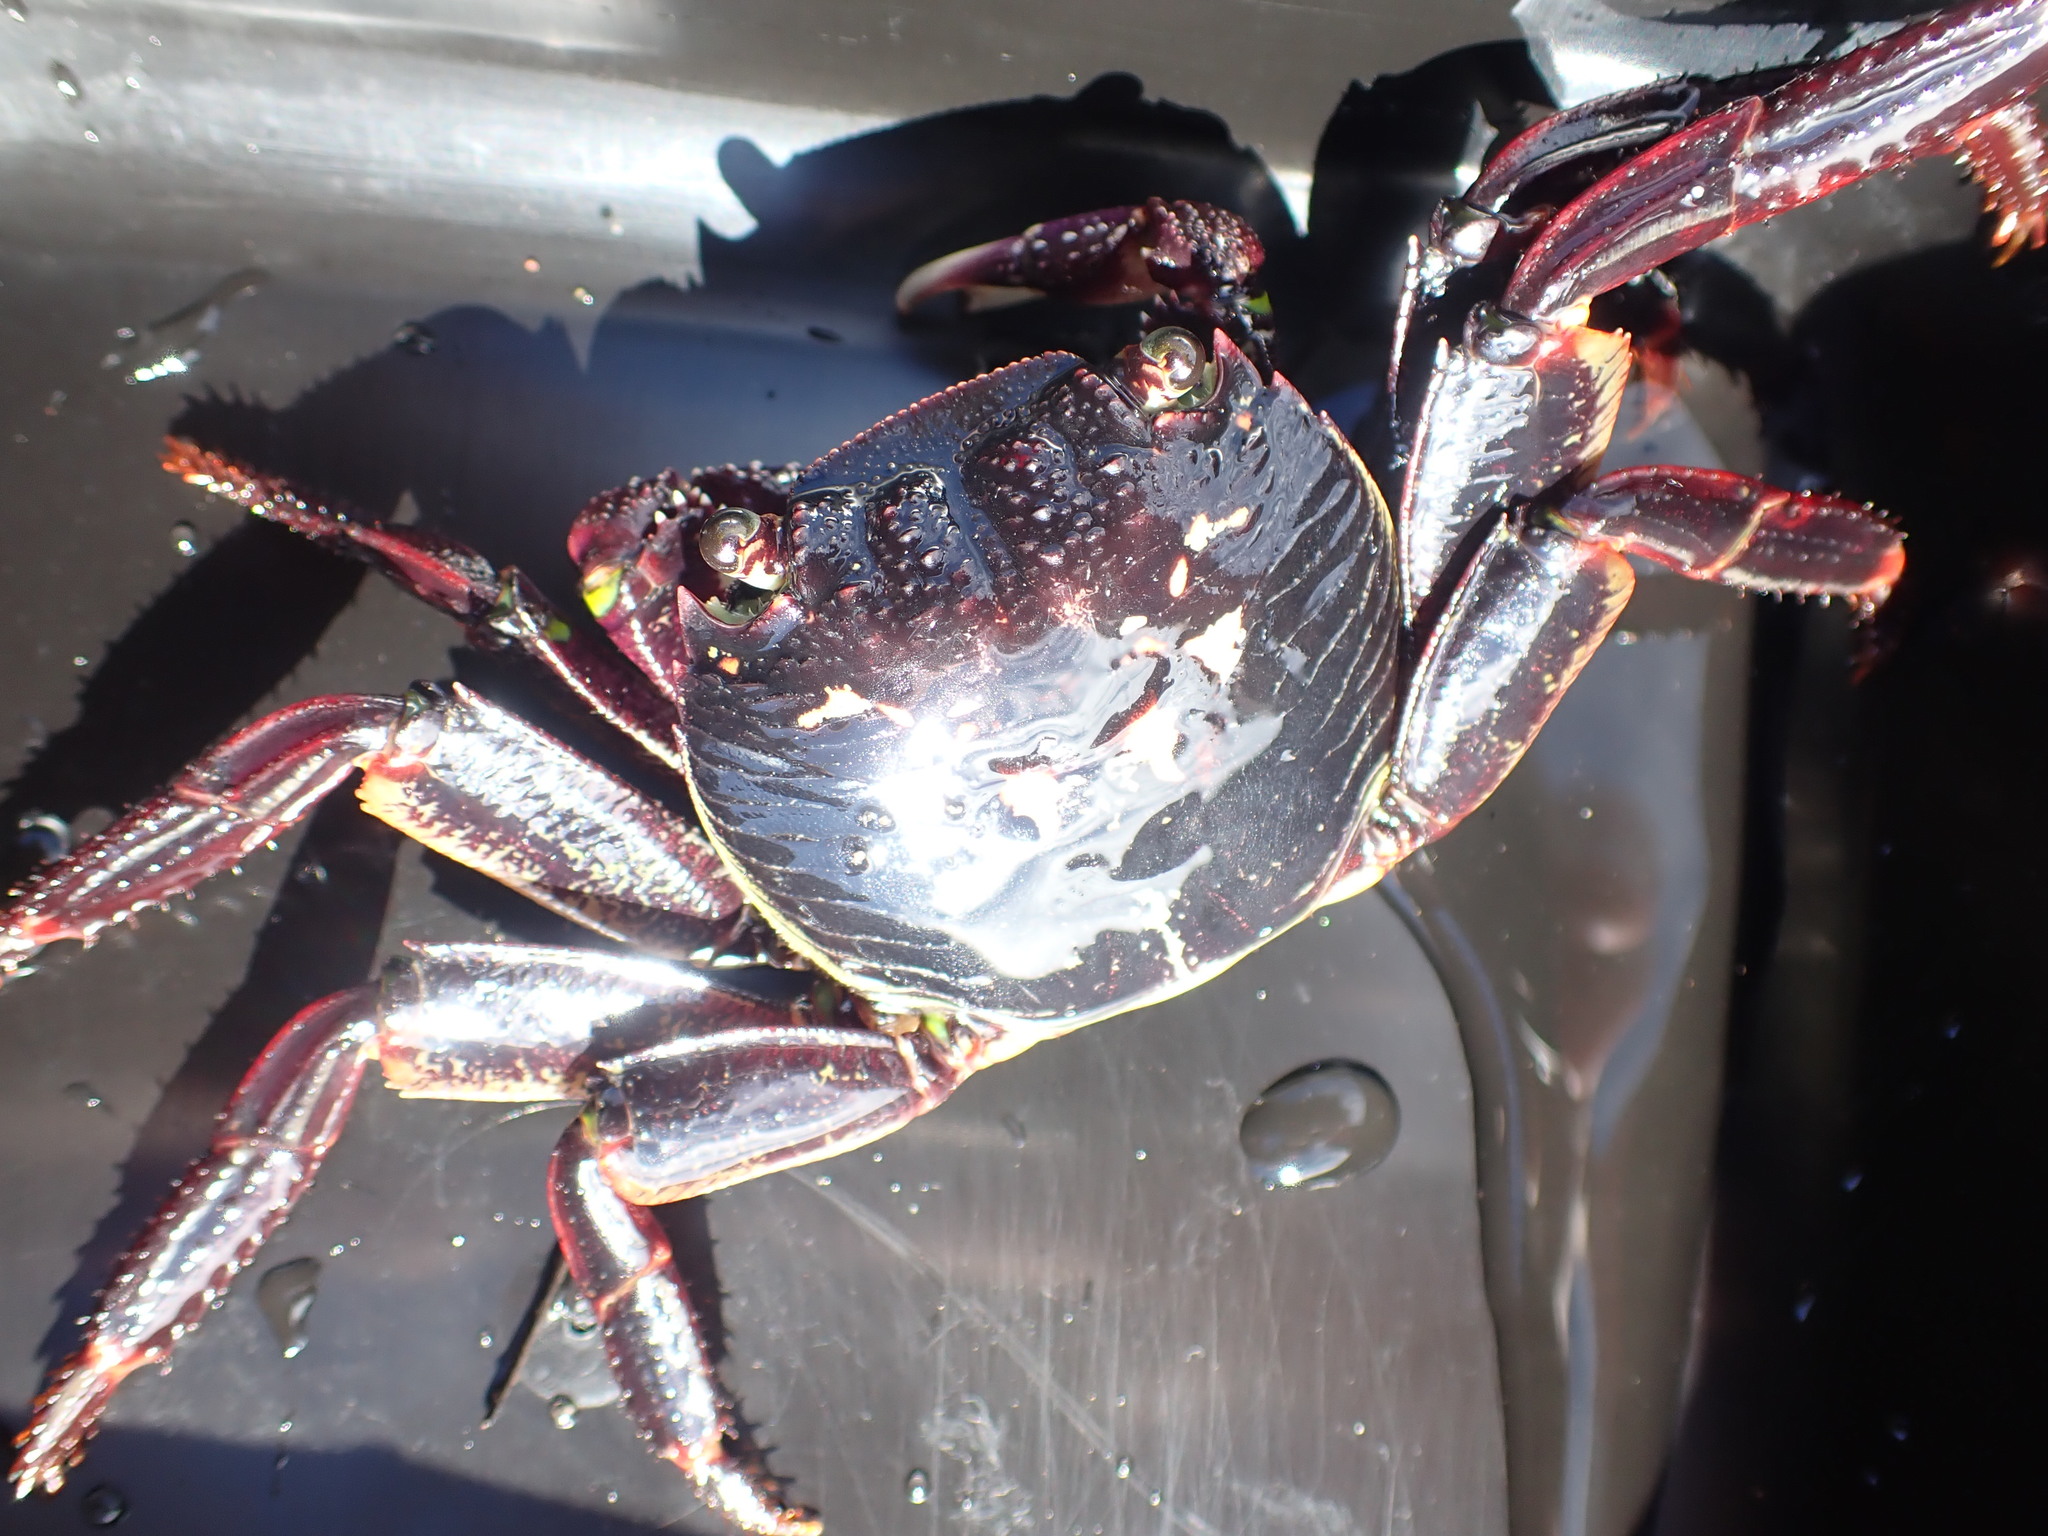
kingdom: Animalia
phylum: Arthropoda
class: Malacostraca
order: Decapoda
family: Grapsidae
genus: Leptograpsus
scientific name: Leptograpsus variegatus
